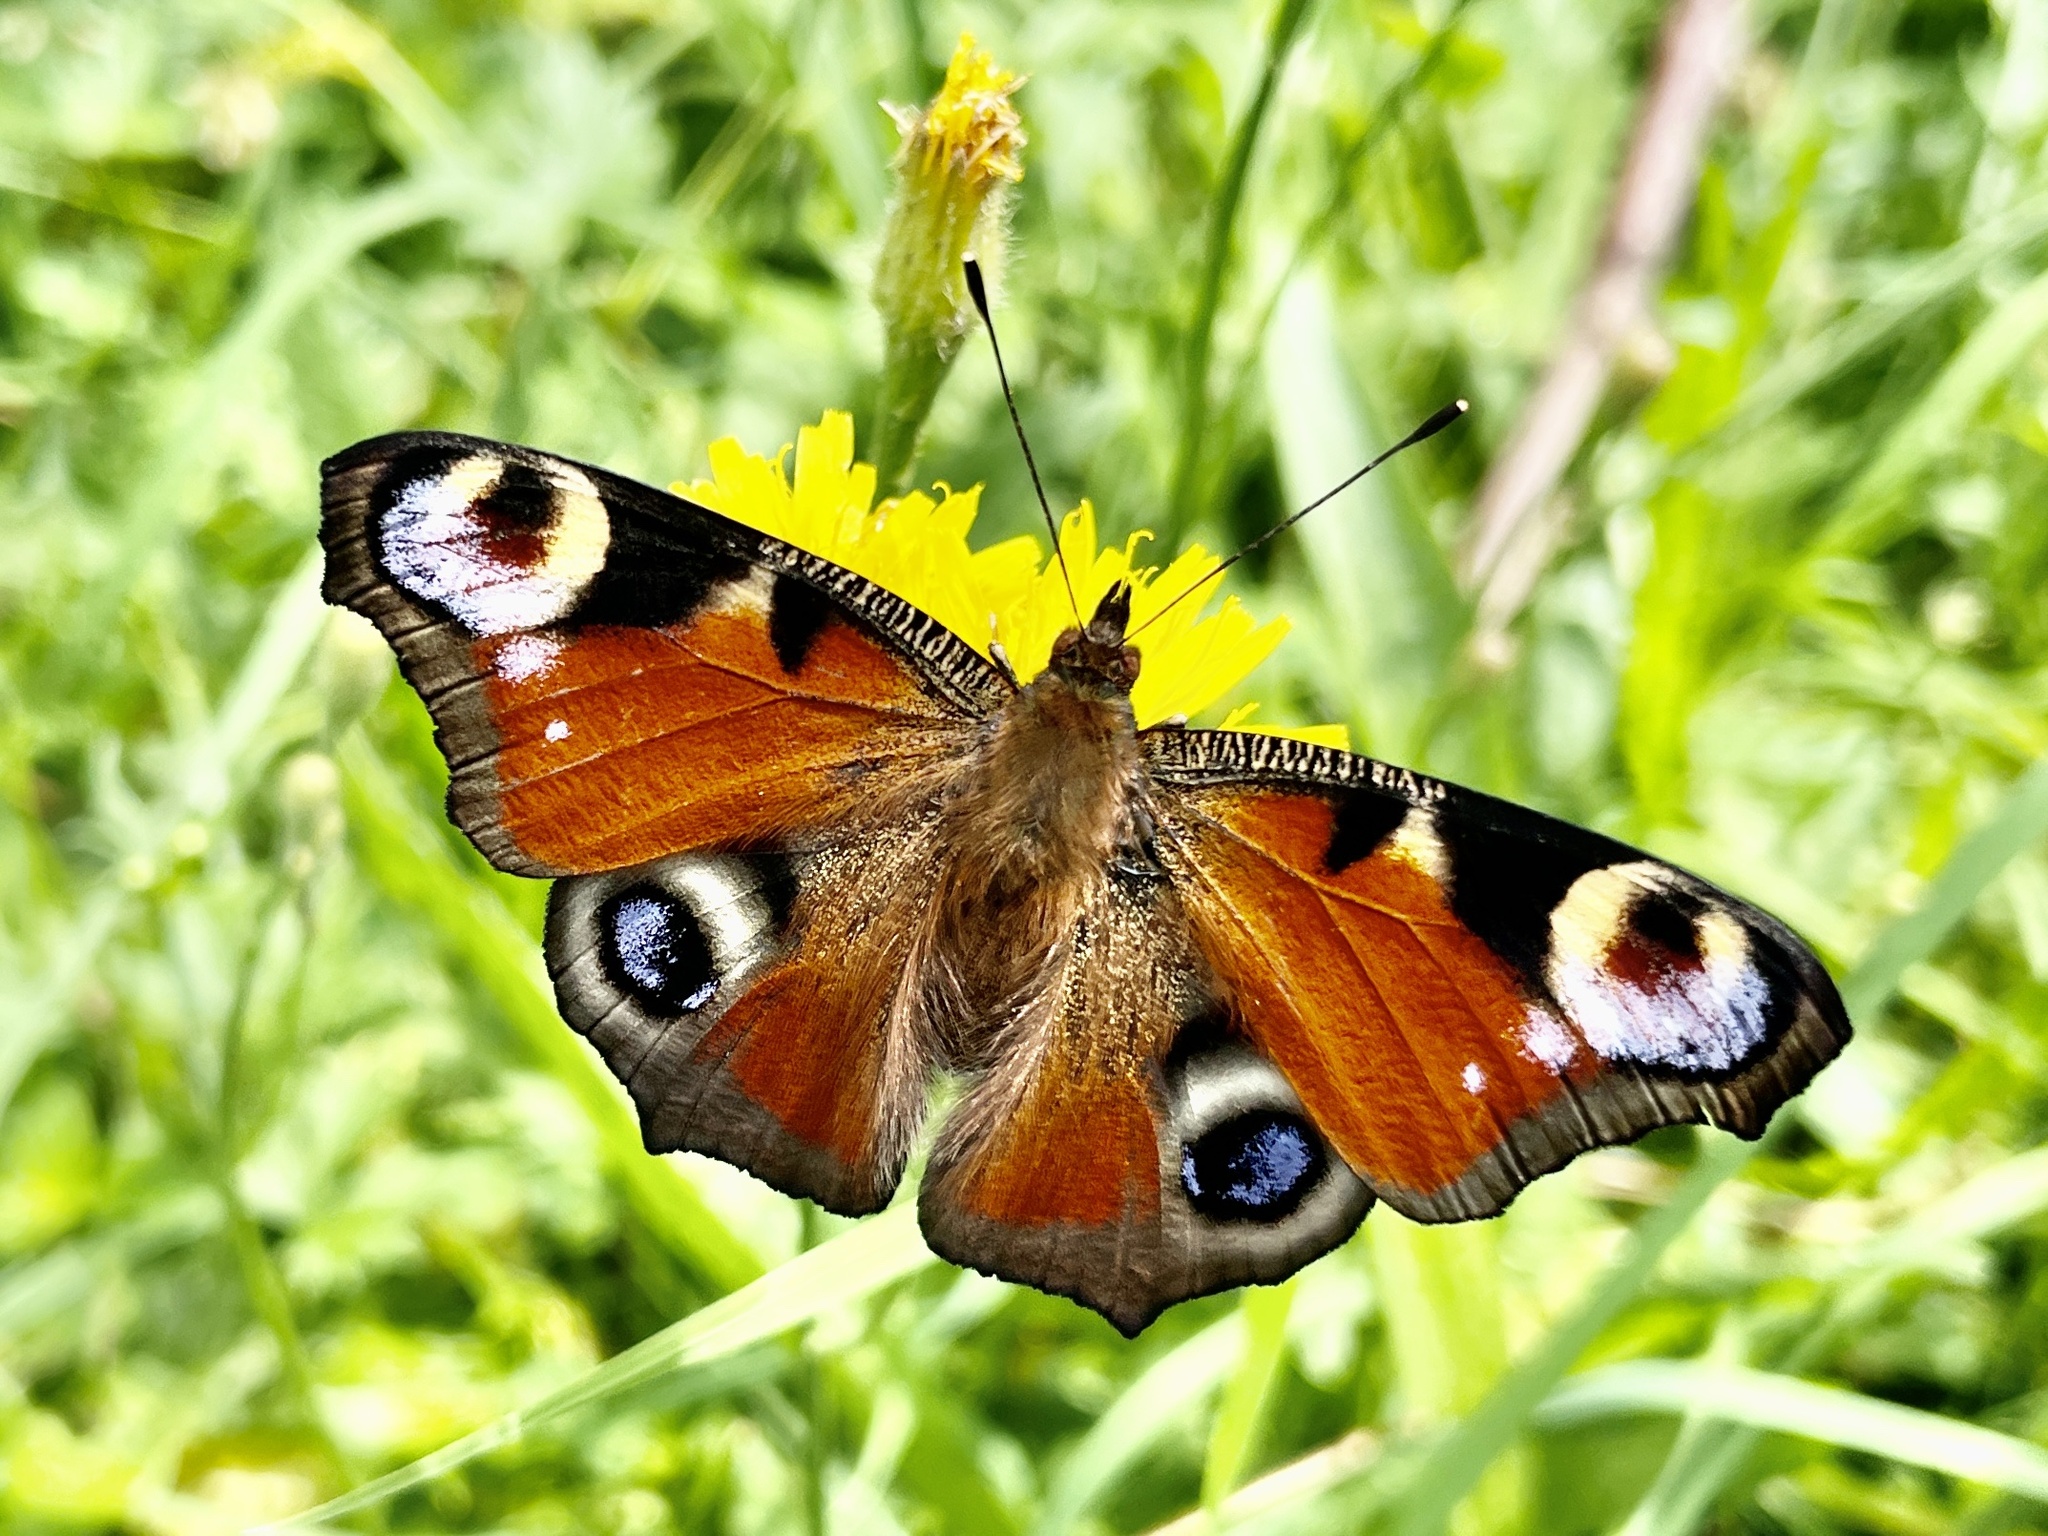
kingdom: Animalia
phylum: Arthropoda
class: Insecta
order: Lepidoptera
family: Nymphalidae
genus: Aglais
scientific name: Aglais io
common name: Peacock
